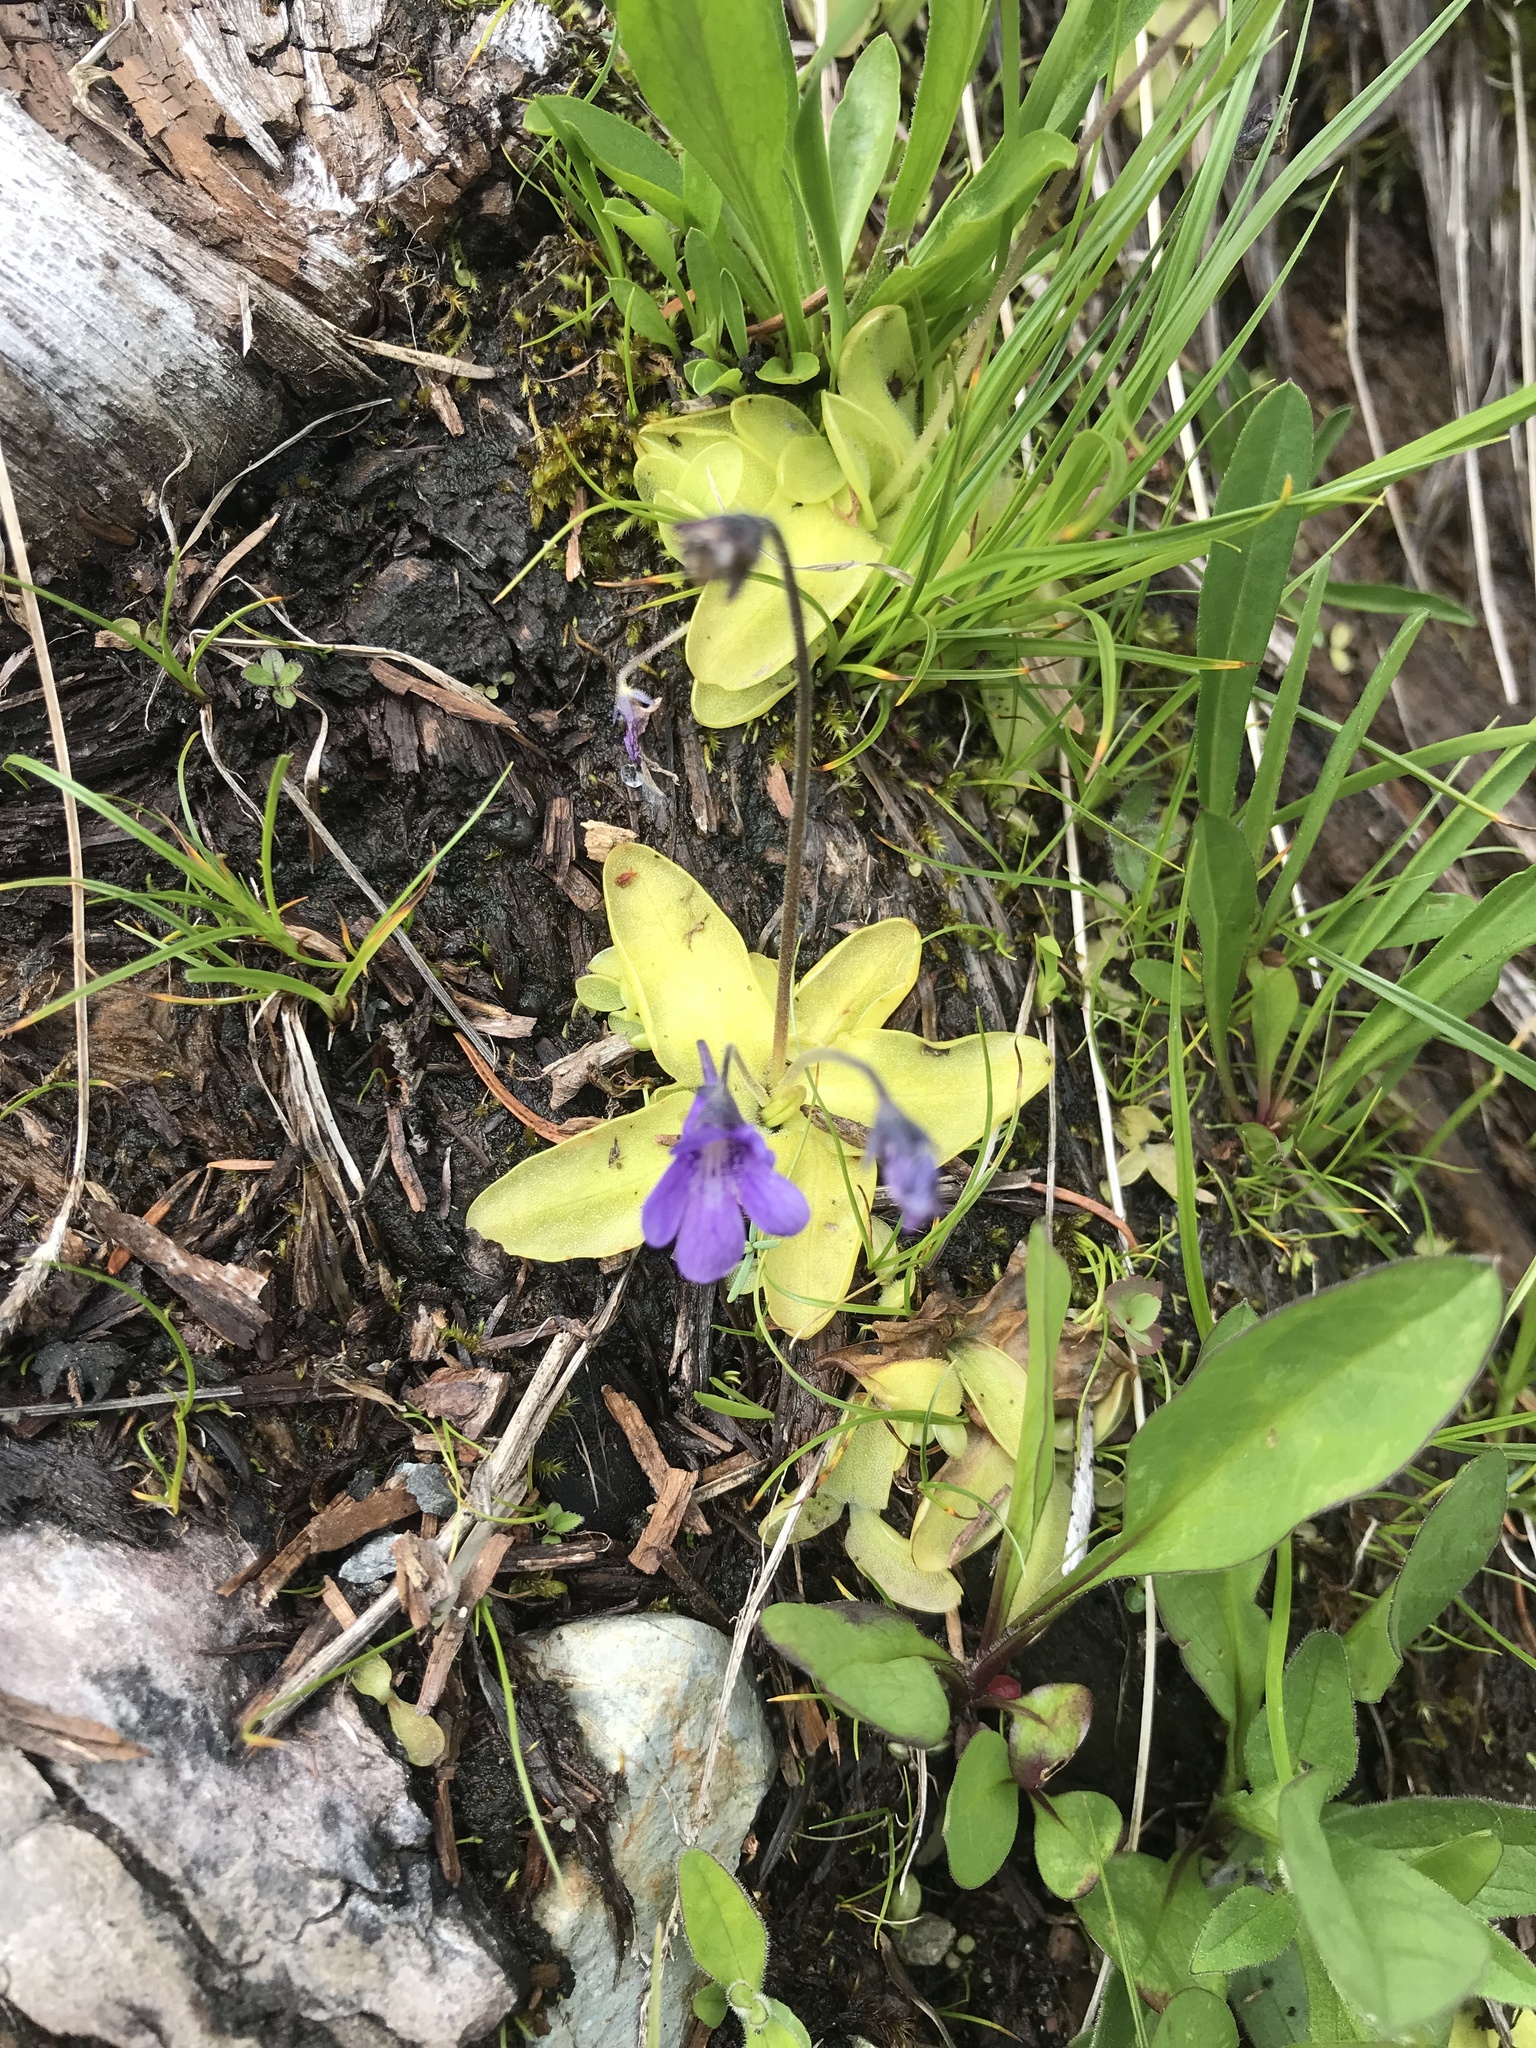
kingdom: Plantae
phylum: Tracheophyta
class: Magnoliopsida
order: Lamiales
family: Lentibulariaceae
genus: Pinguicula
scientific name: Pinguicula vulgaris
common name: Common butterwort
